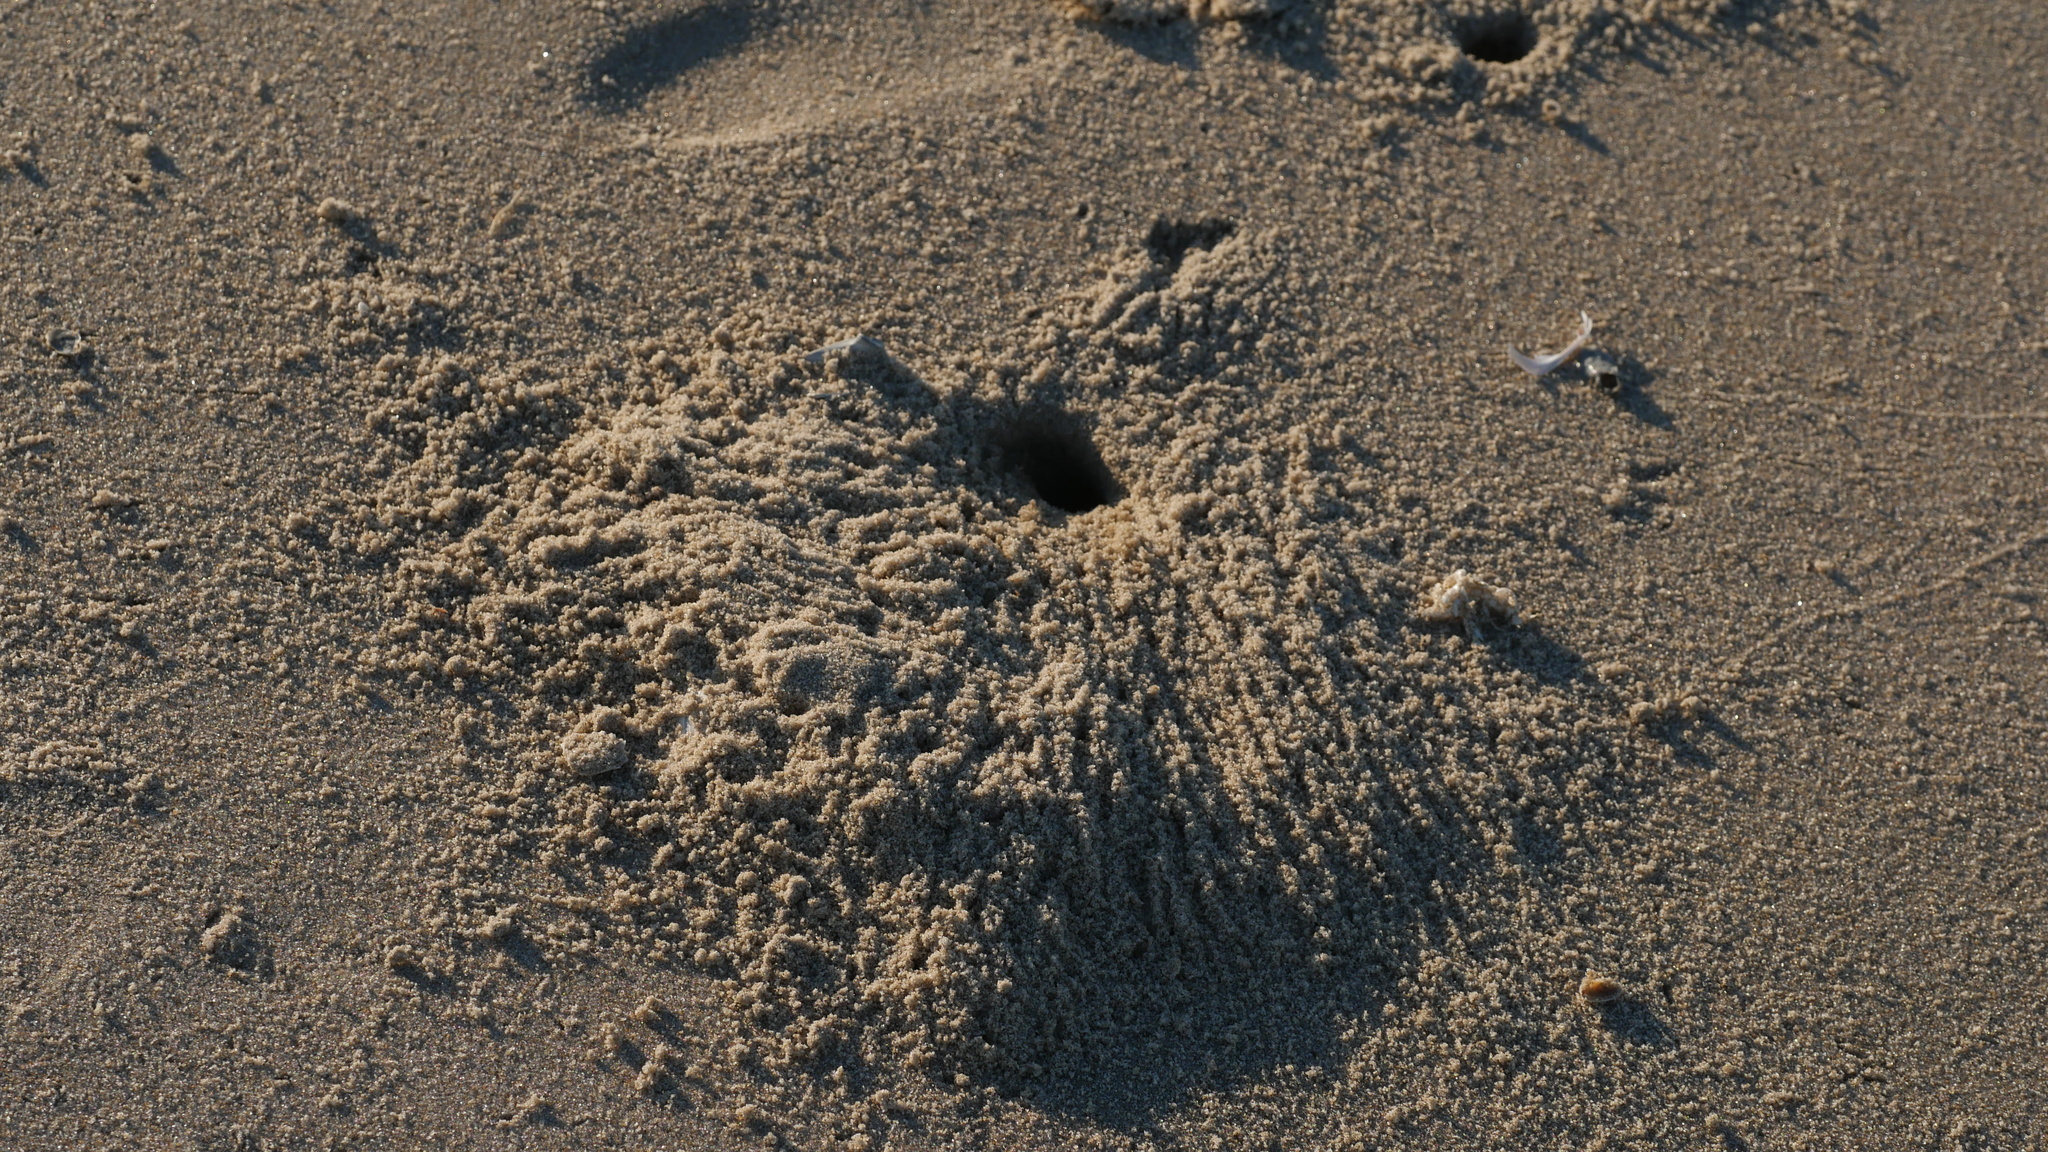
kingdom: Animalia
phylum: Arthropoda
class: Malacostraca
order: Decapoda
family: Ocypodidae
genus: Ocypode
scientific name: Ocypode quadrata
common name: Ghost crab
